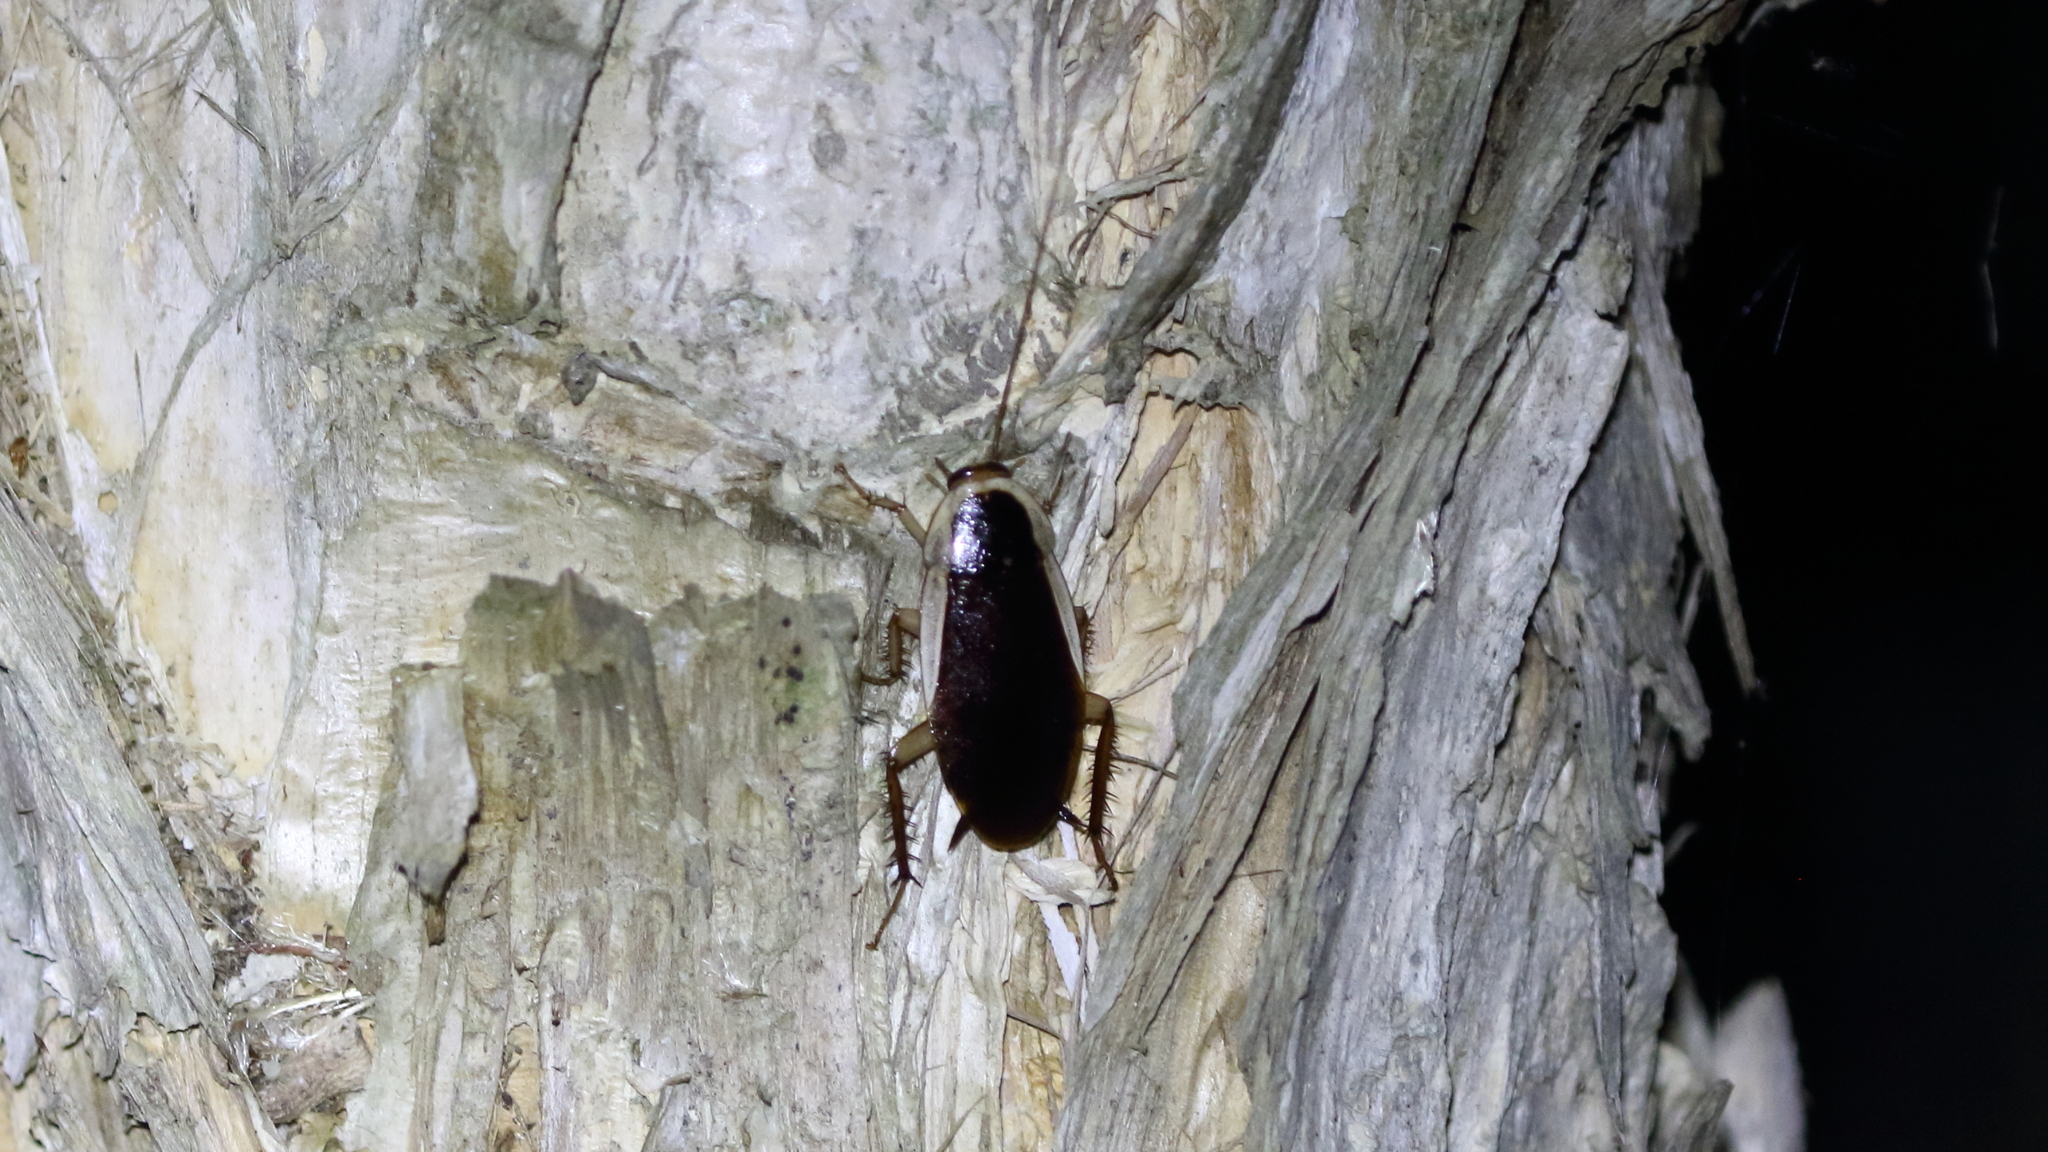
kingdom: Animalia
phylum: Arthropoda
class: Insecta
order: Blattodea
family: Blattidae
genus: Methana
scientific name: Methana parva
